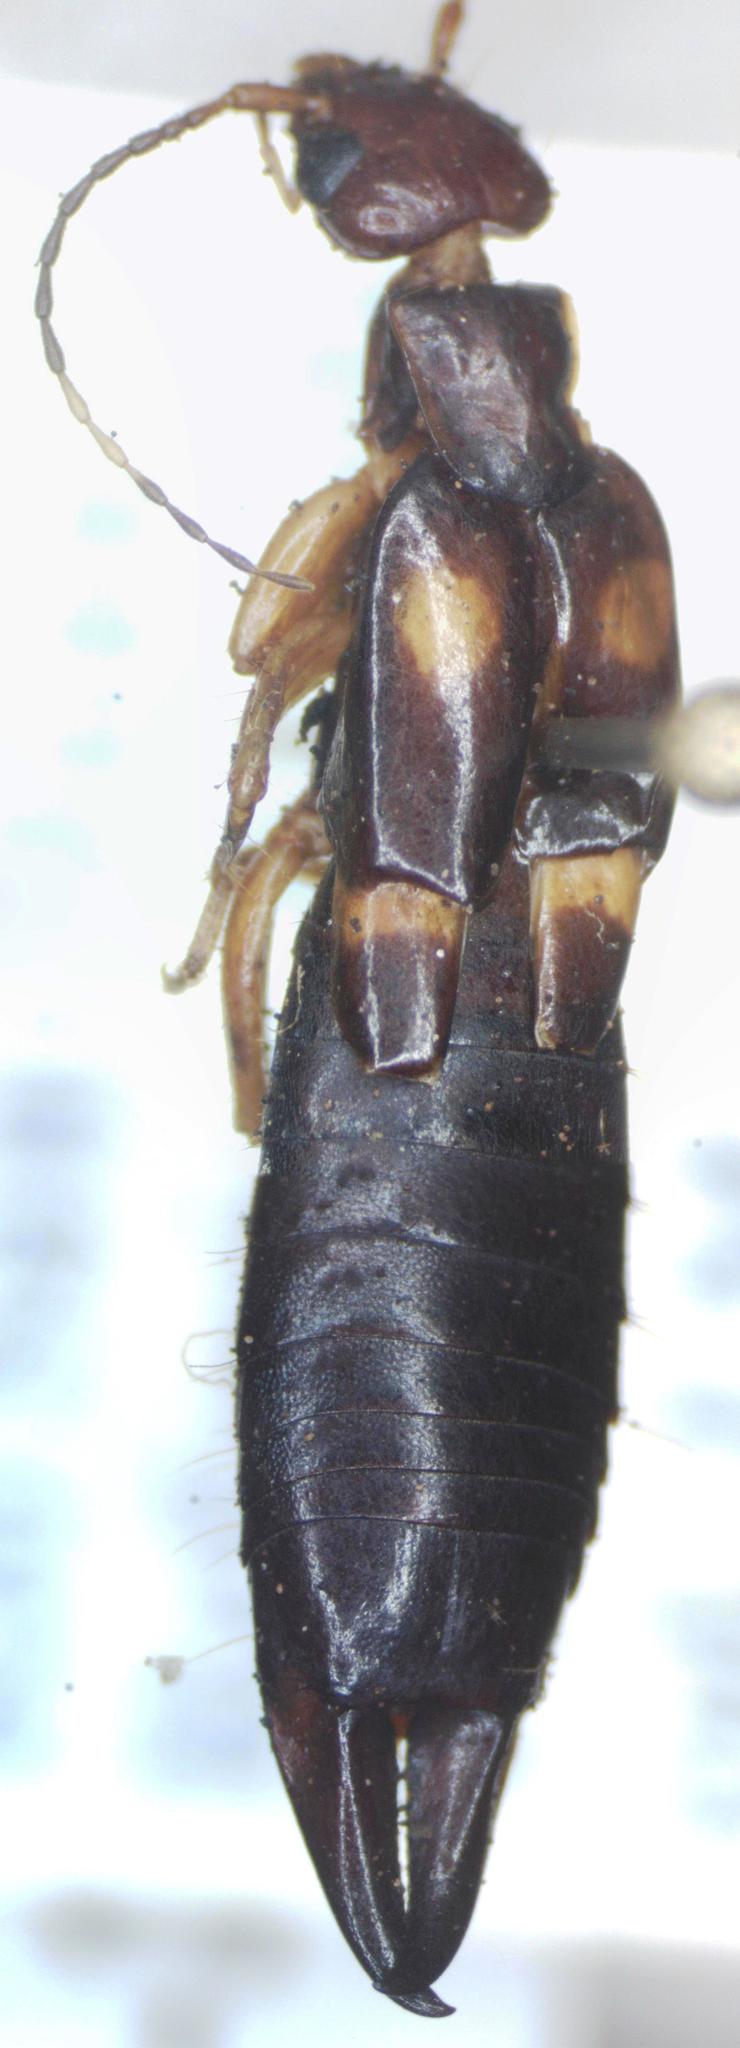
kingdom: Animalia
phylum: Arthropoda
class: Insecta
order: Dermaptera
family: Anisolabididae
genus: Carcinophora
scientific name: Carcinophora percheroni
